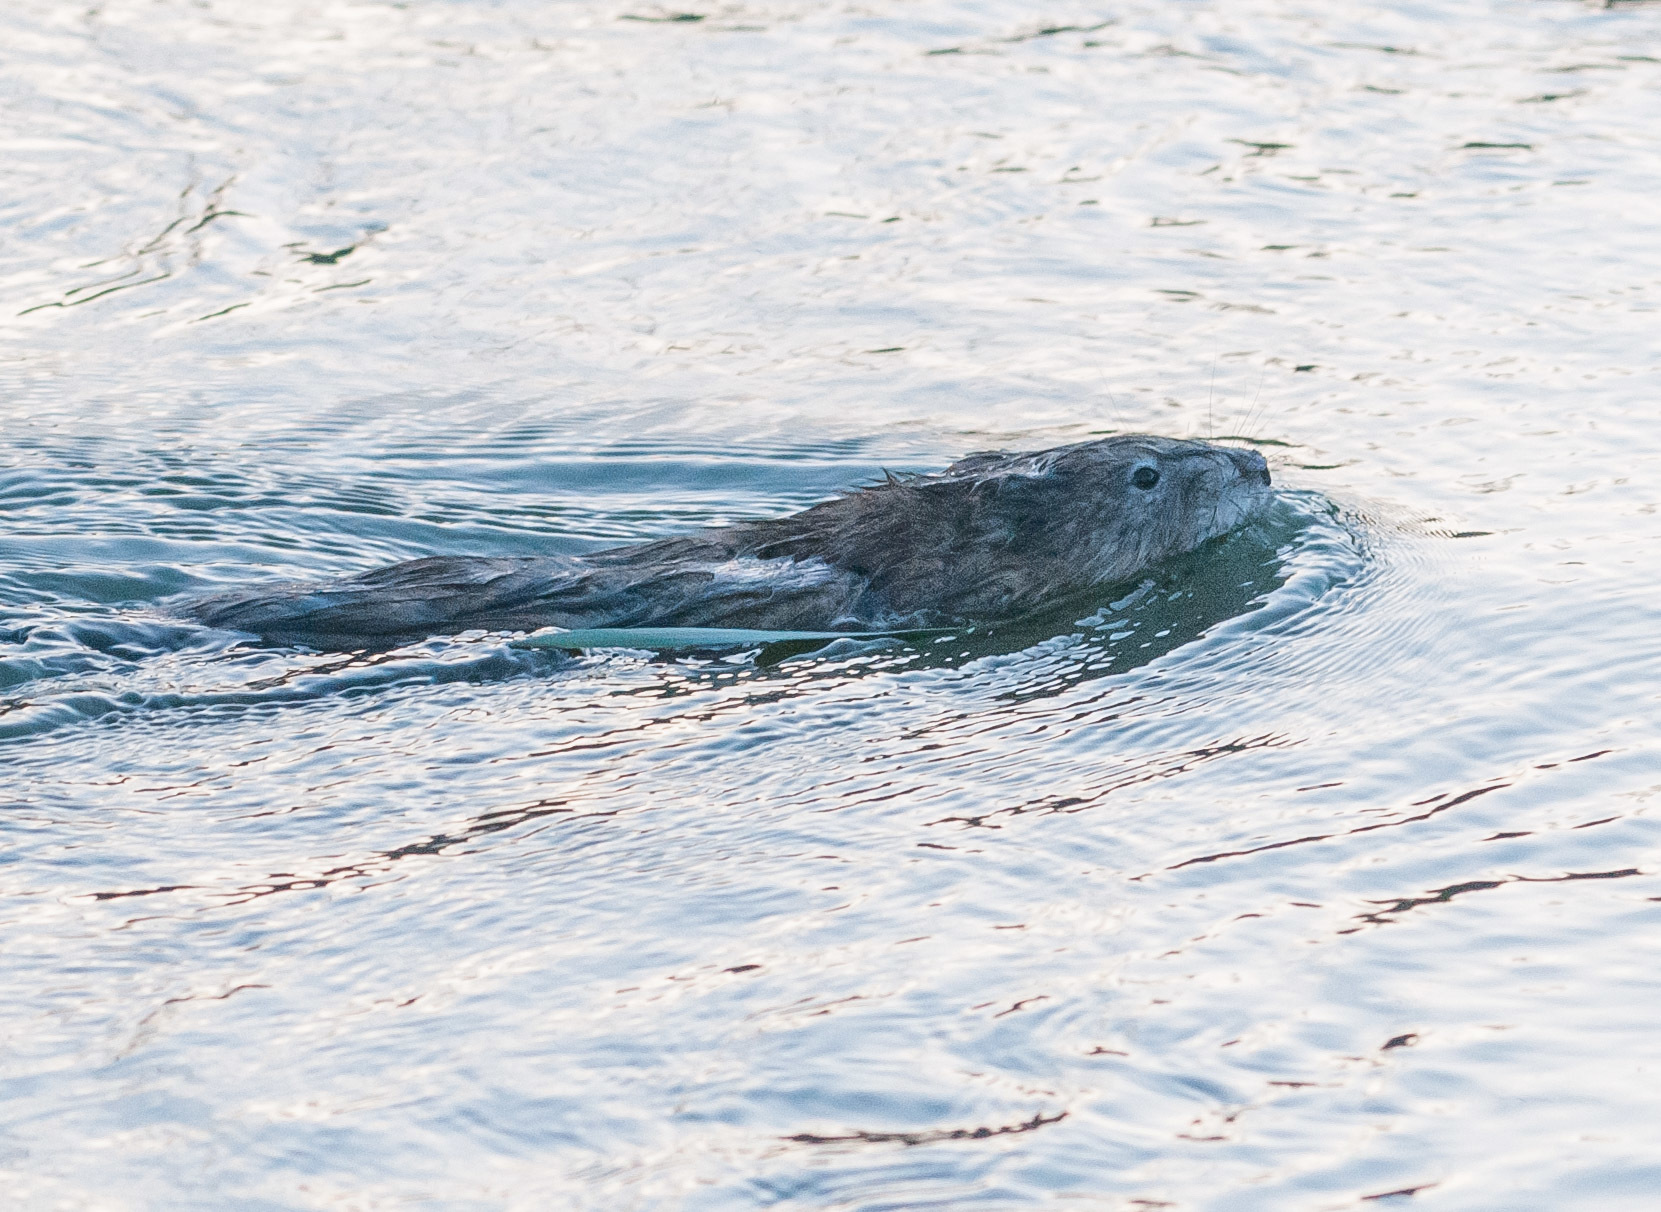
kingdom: Animalia
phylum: Chordata
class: Mammalia
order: Rodentia
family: Cricetidae
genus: Ondatra
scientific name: Ondatra zibethicus
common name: Muskrat
